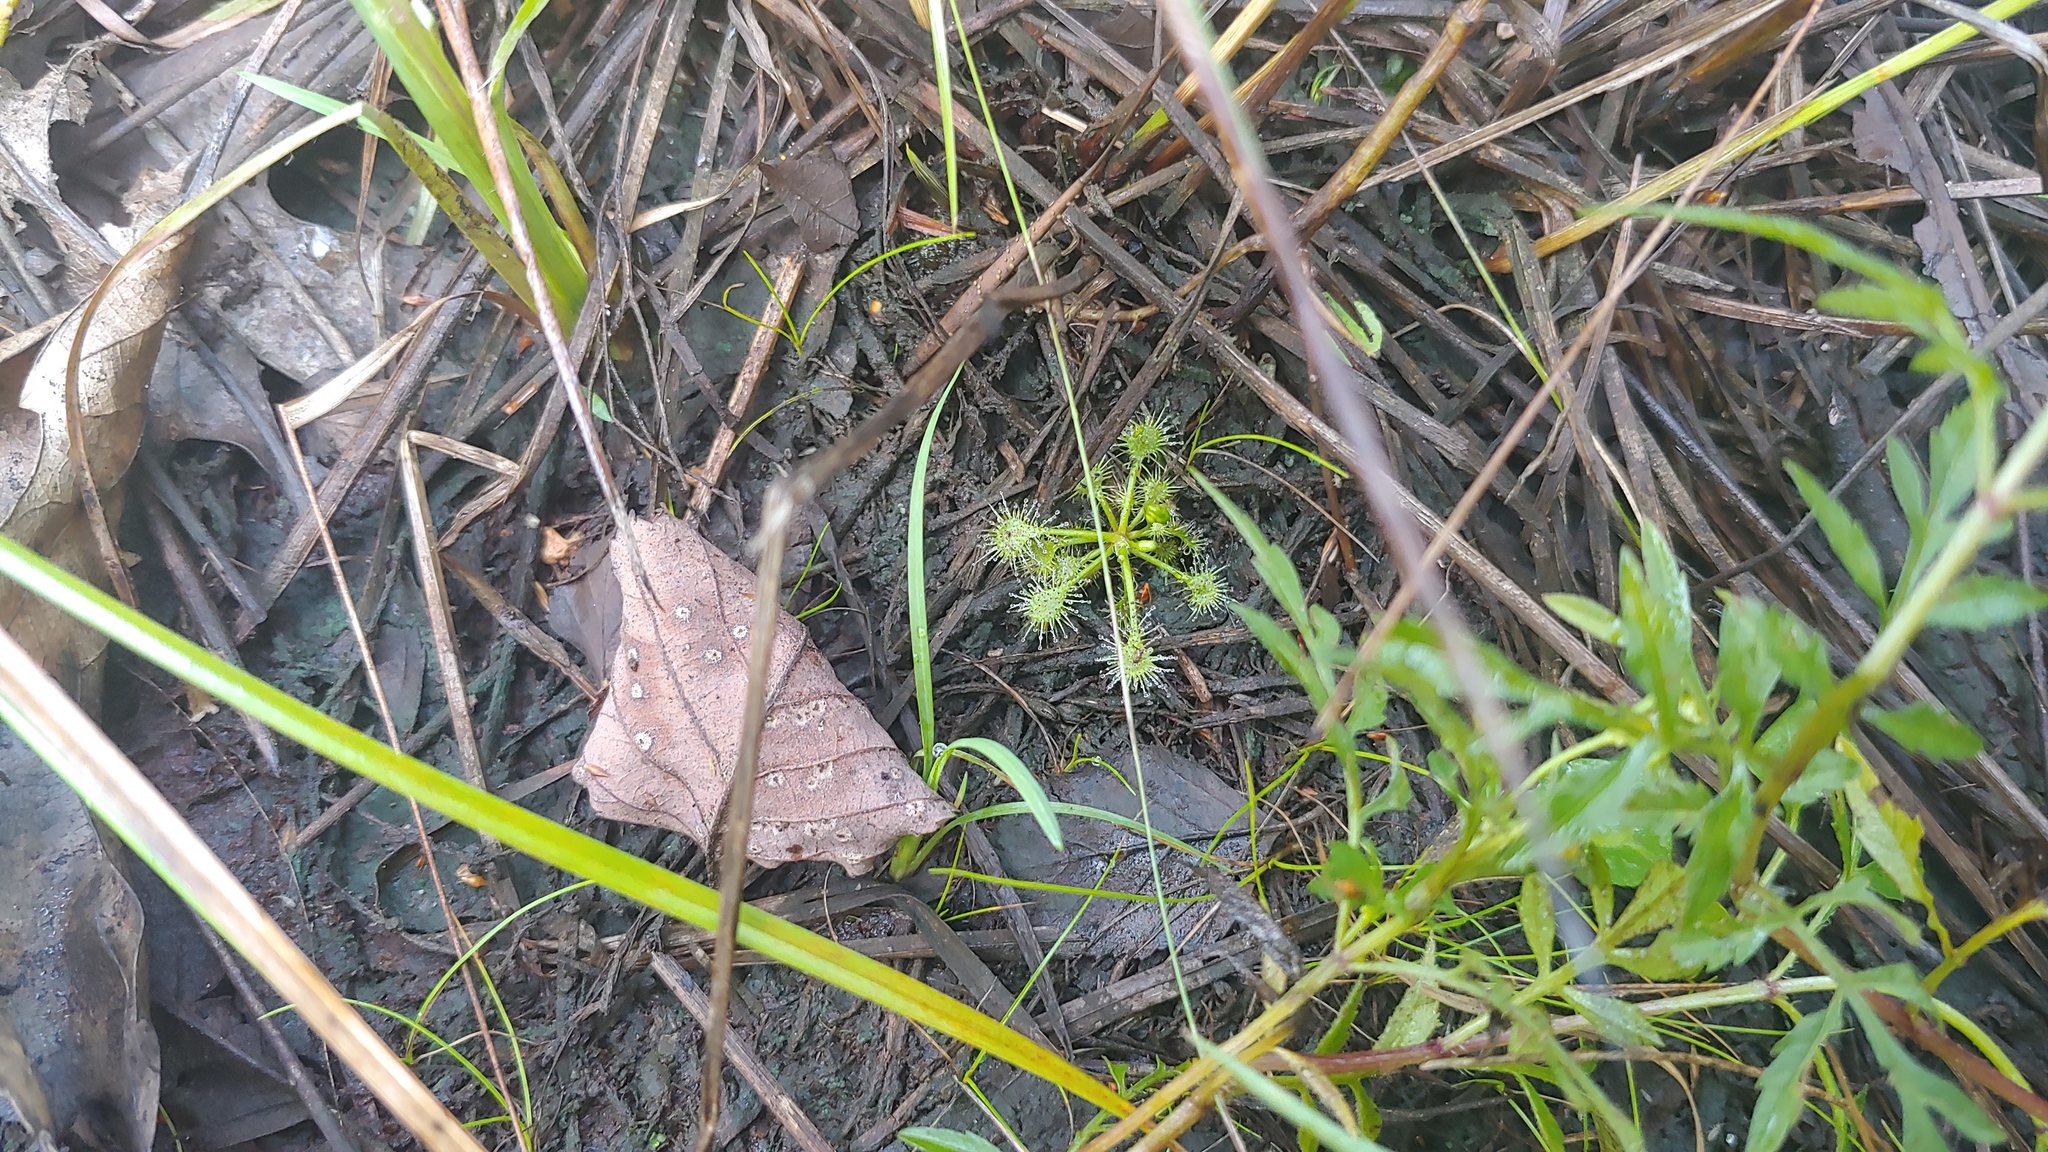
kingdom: Plantae
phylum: Tracheophyta
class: Magnoliopsida
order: Caryophyllales
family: Droseraceae
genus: Drosera
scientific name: Drosera intermedia
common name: Oblong-leaved sundew
